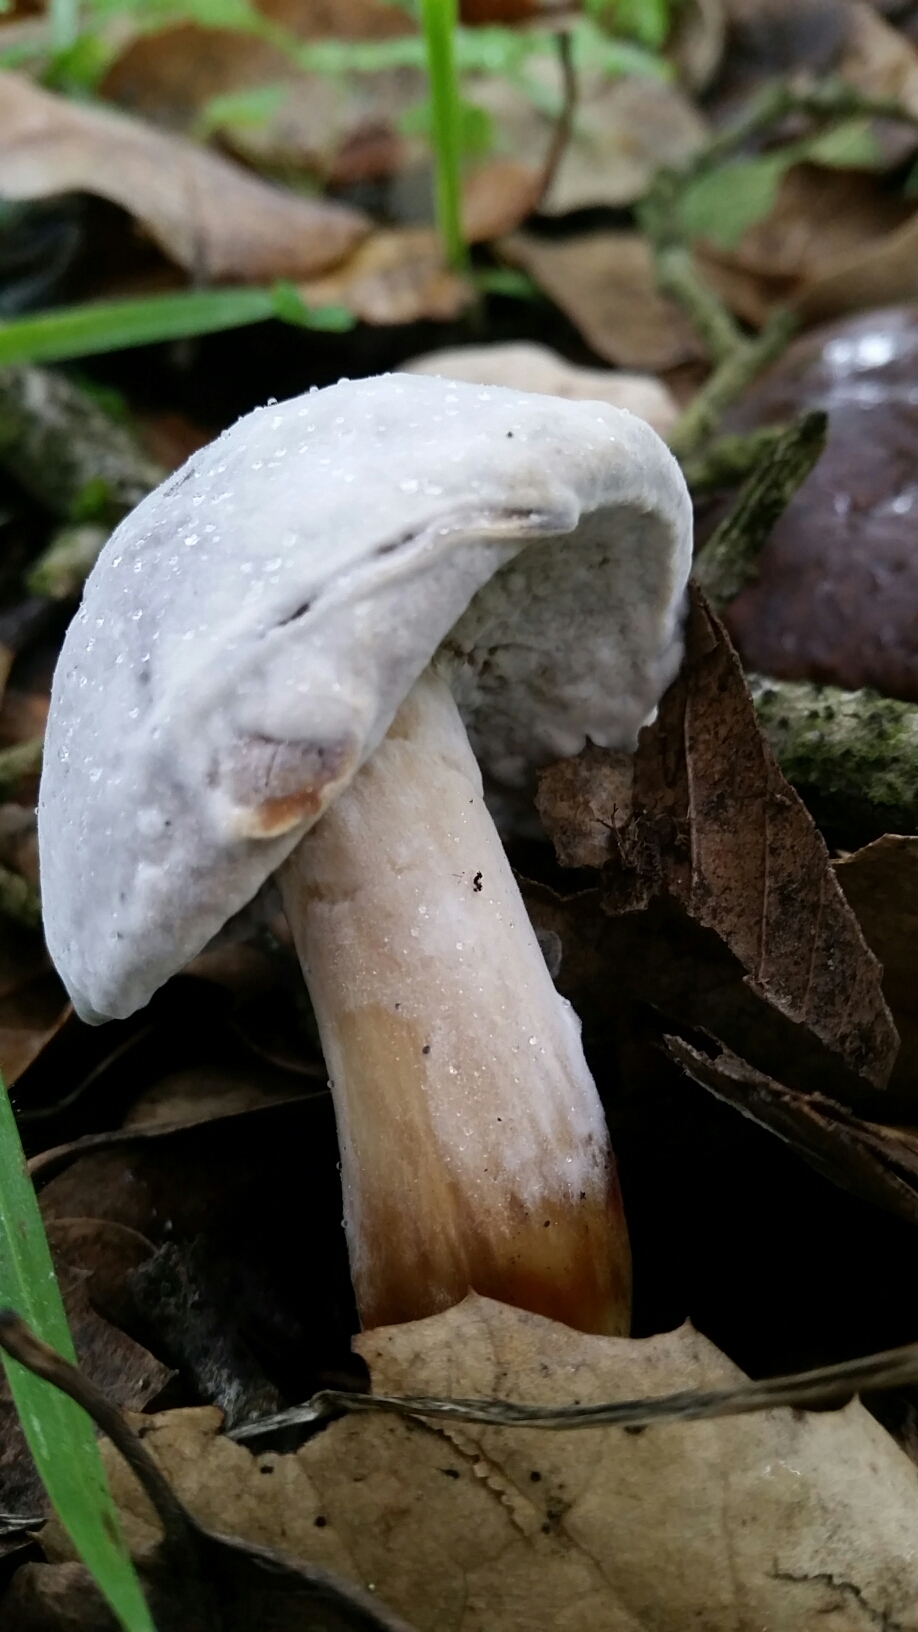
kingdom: Fungi
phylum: Ascomycota
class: Sordariomycetes
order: Hypocreales
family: Hypocreaceae
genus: Hypomyces
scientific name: Hypomyces microspermus
